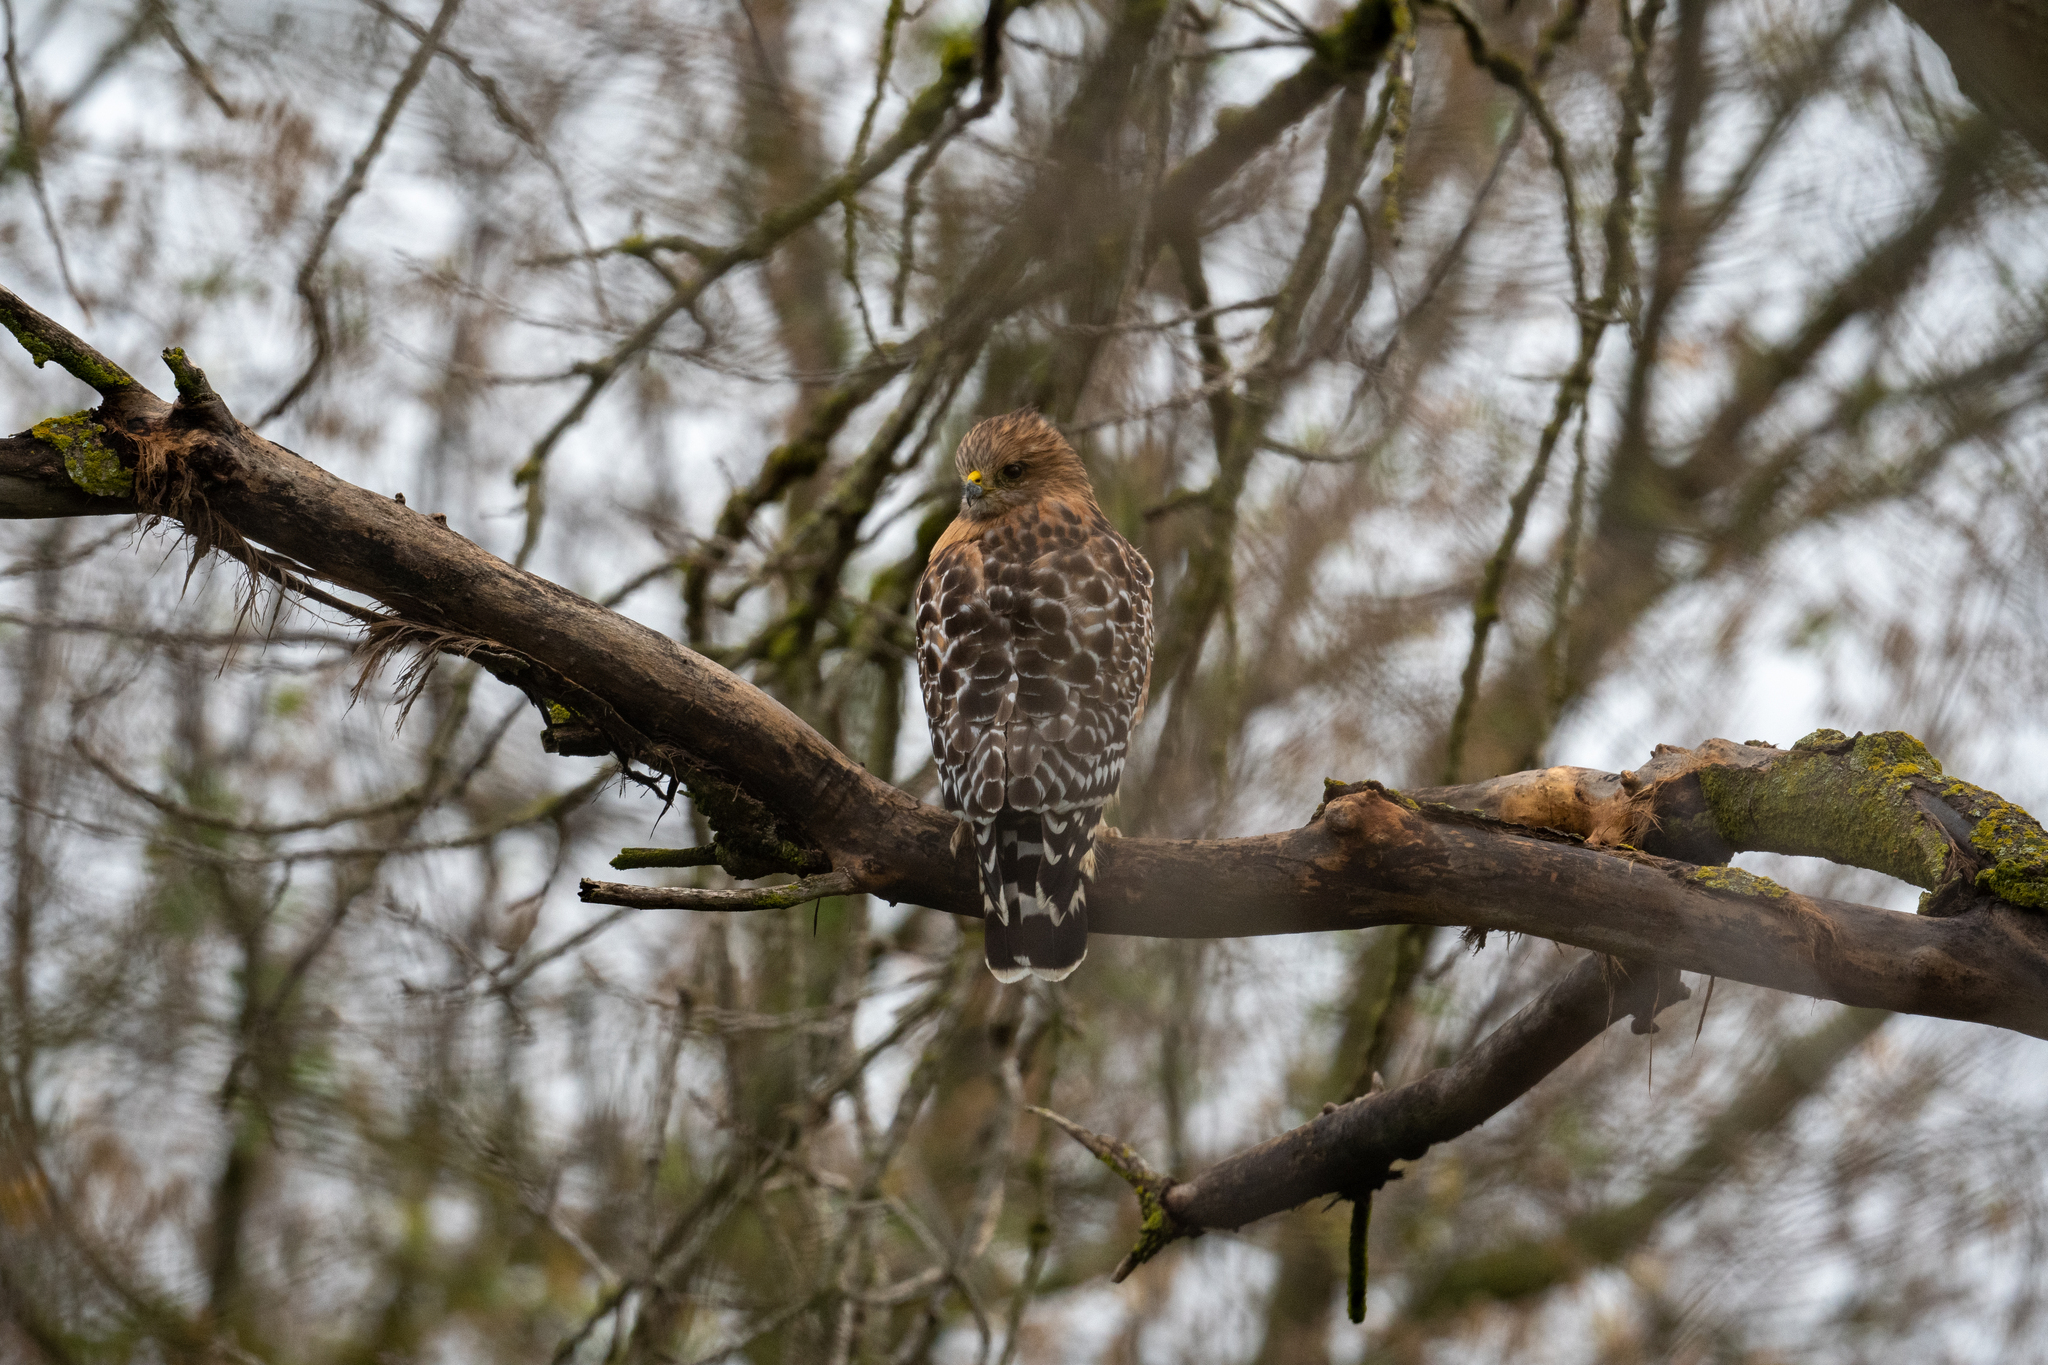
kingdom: Animalia
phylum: Chordata
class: Aves
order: Accipitriformes
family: Accipitridae
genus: Buteo
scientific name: Buteo lineatus
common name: Red-shouldered hawk
